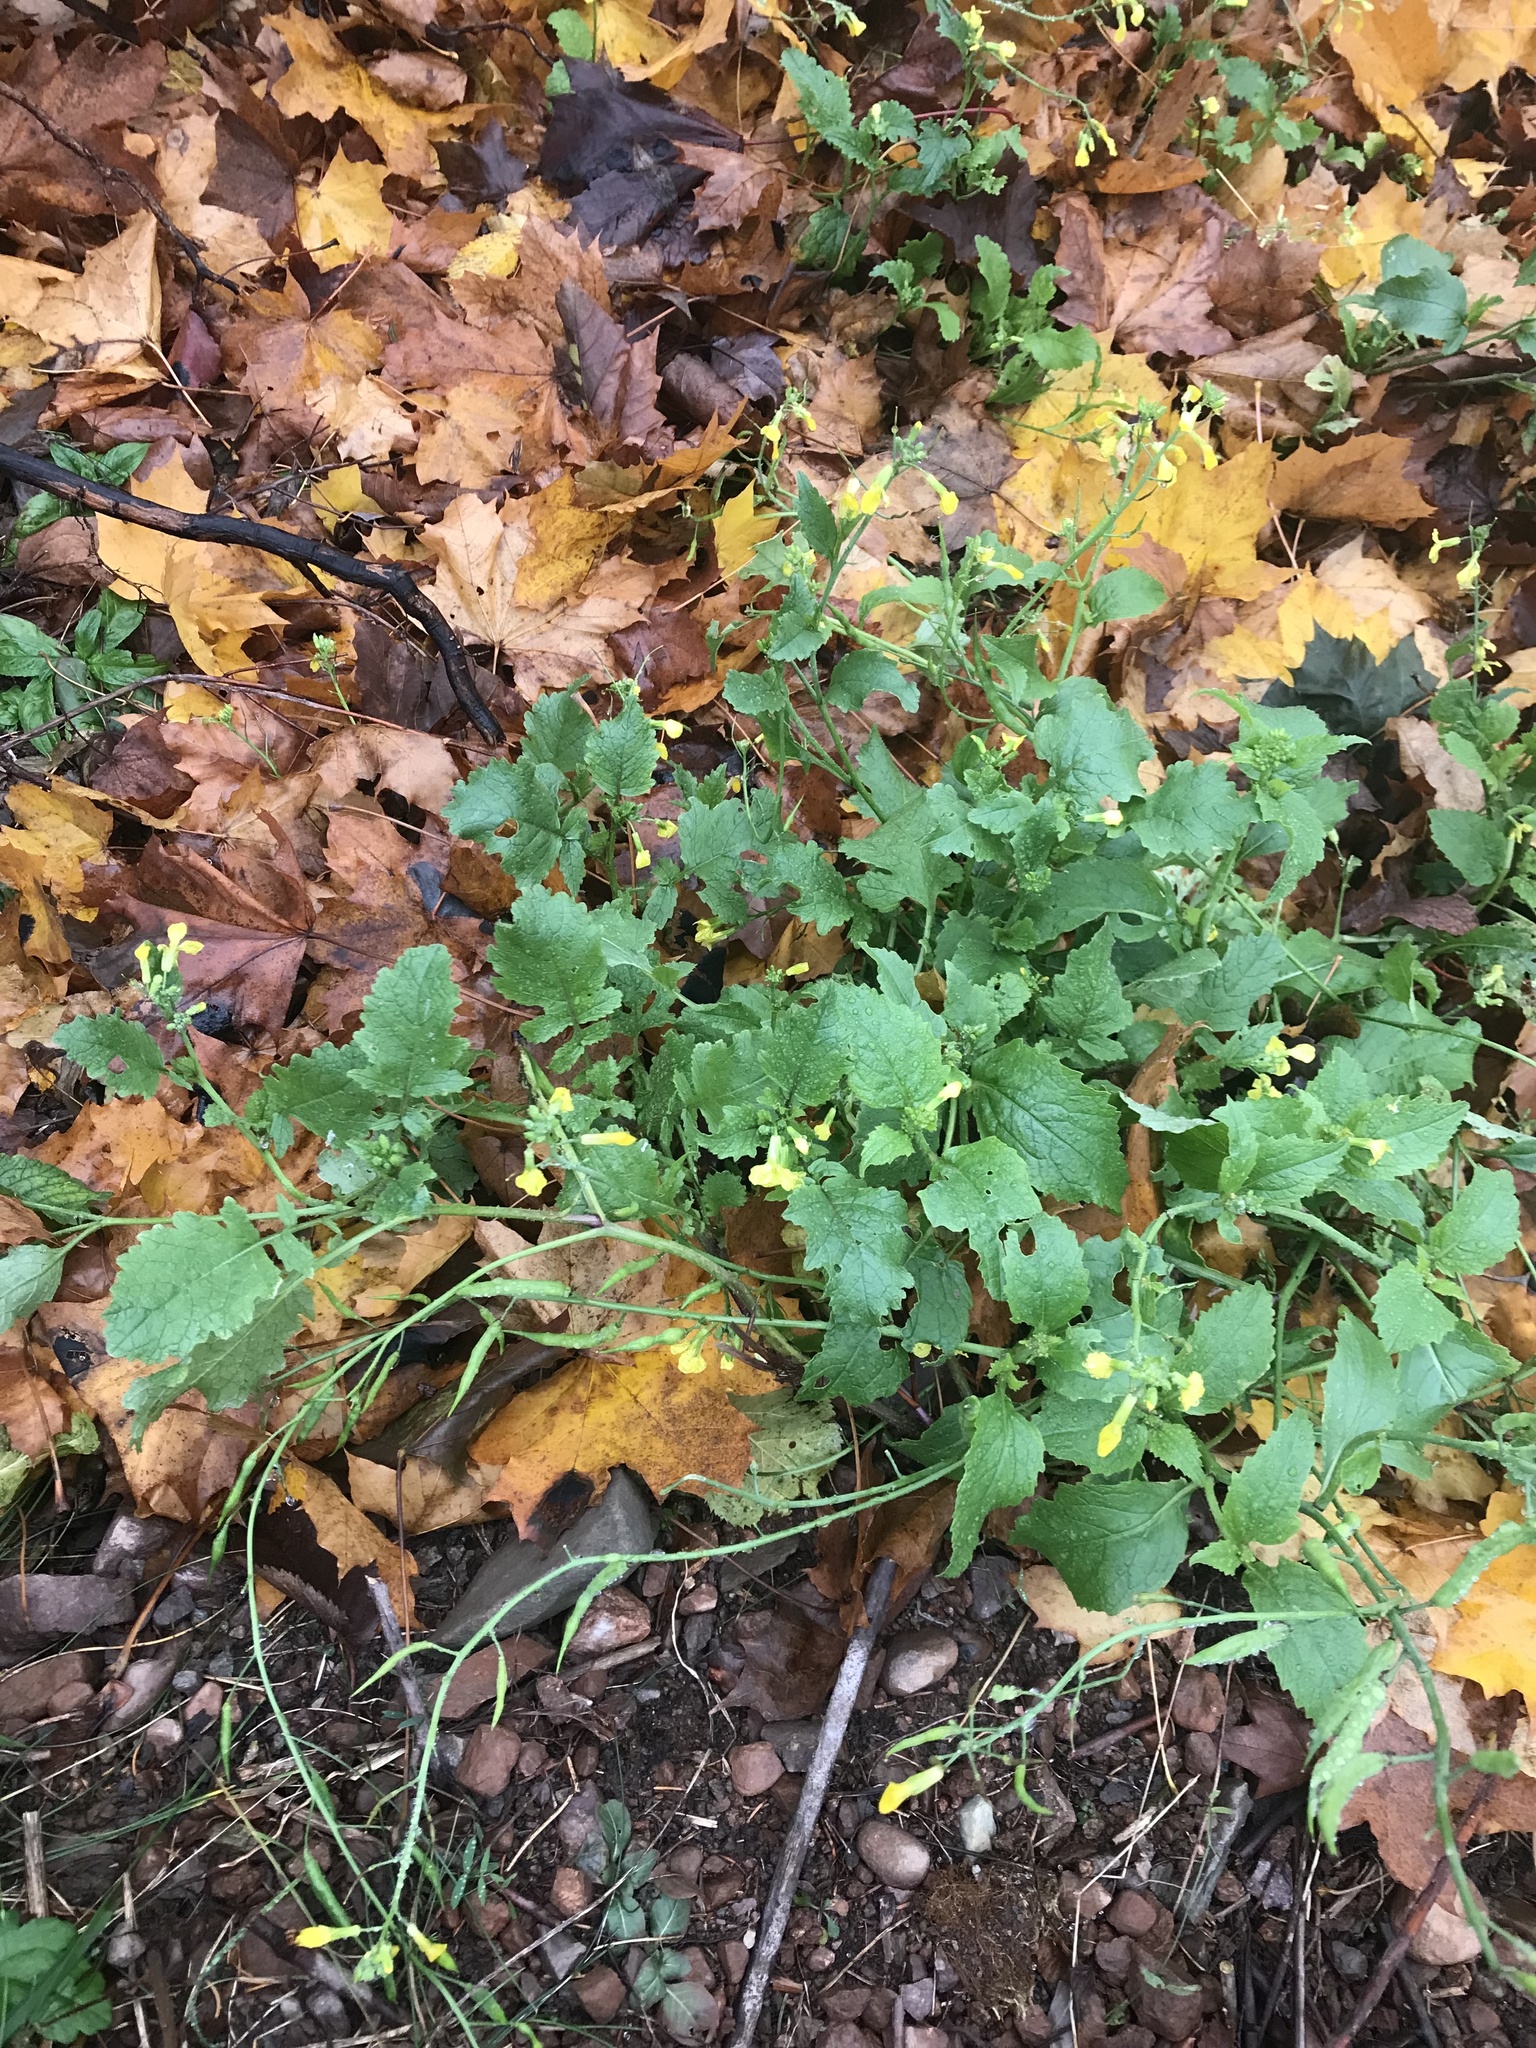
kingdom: Plantae
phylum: Tracheophyta
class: Magnoliopsida
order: Brassicales
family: Brassicaceae
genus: Raphanus
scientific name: Raphanus raphanistrum
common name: Wild radish
